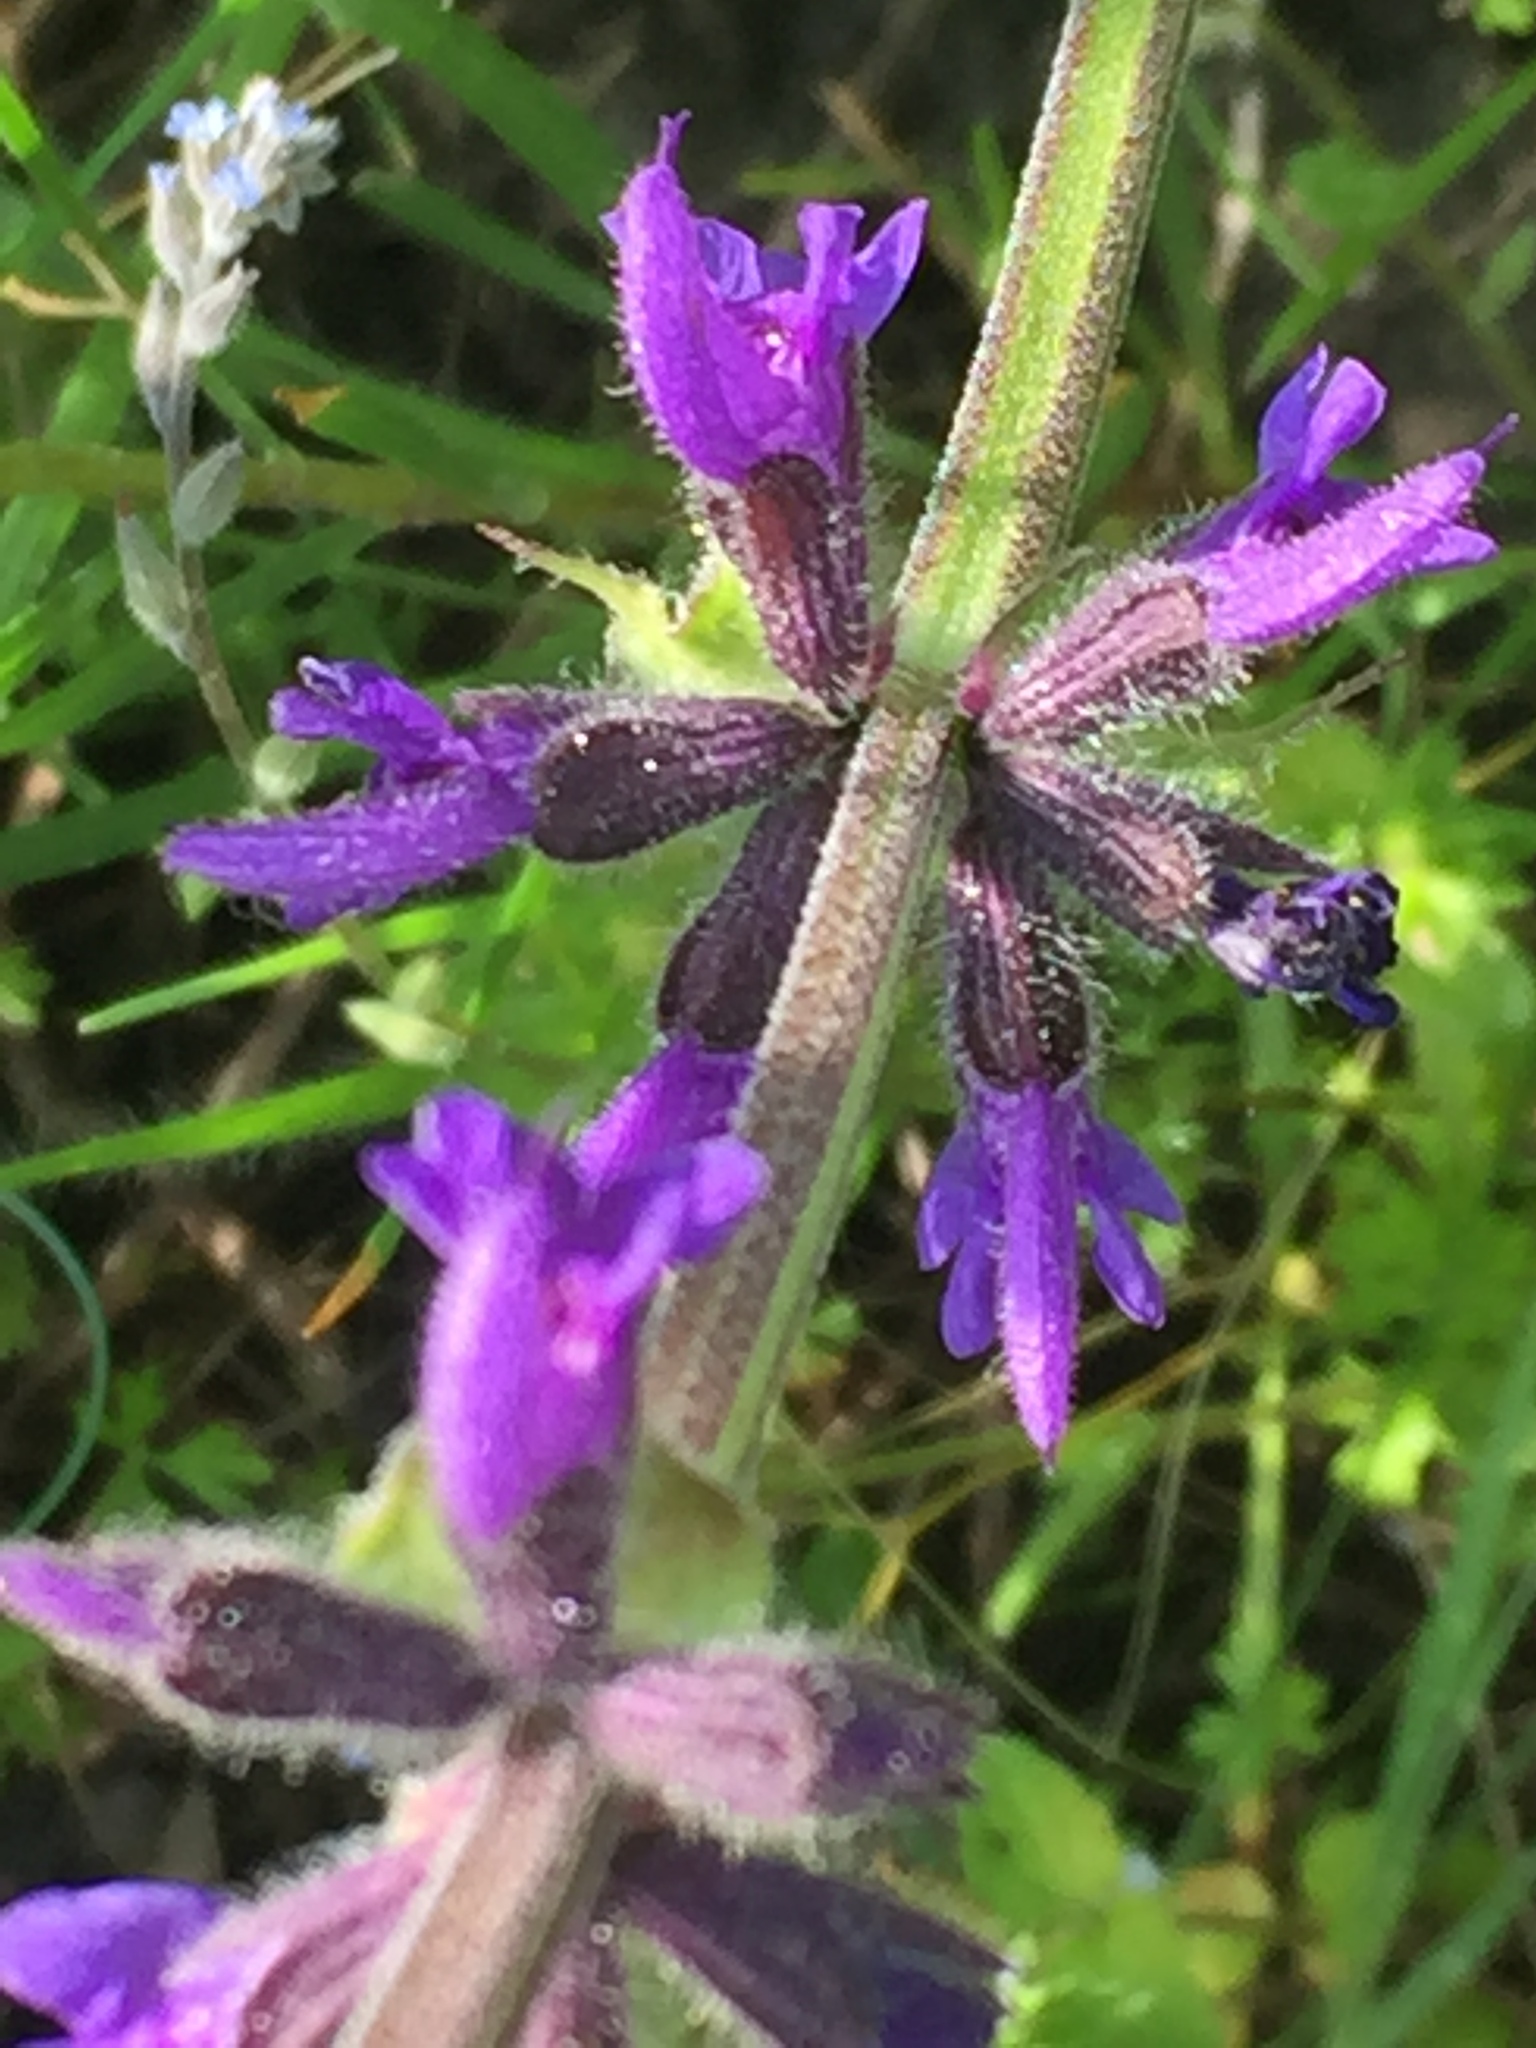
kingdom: Plantae
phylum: Tracheophyta
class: Magnoliopsida
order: Lamiales
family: Lamiaceae
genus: Salvia
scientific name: Salvia dumetorum
